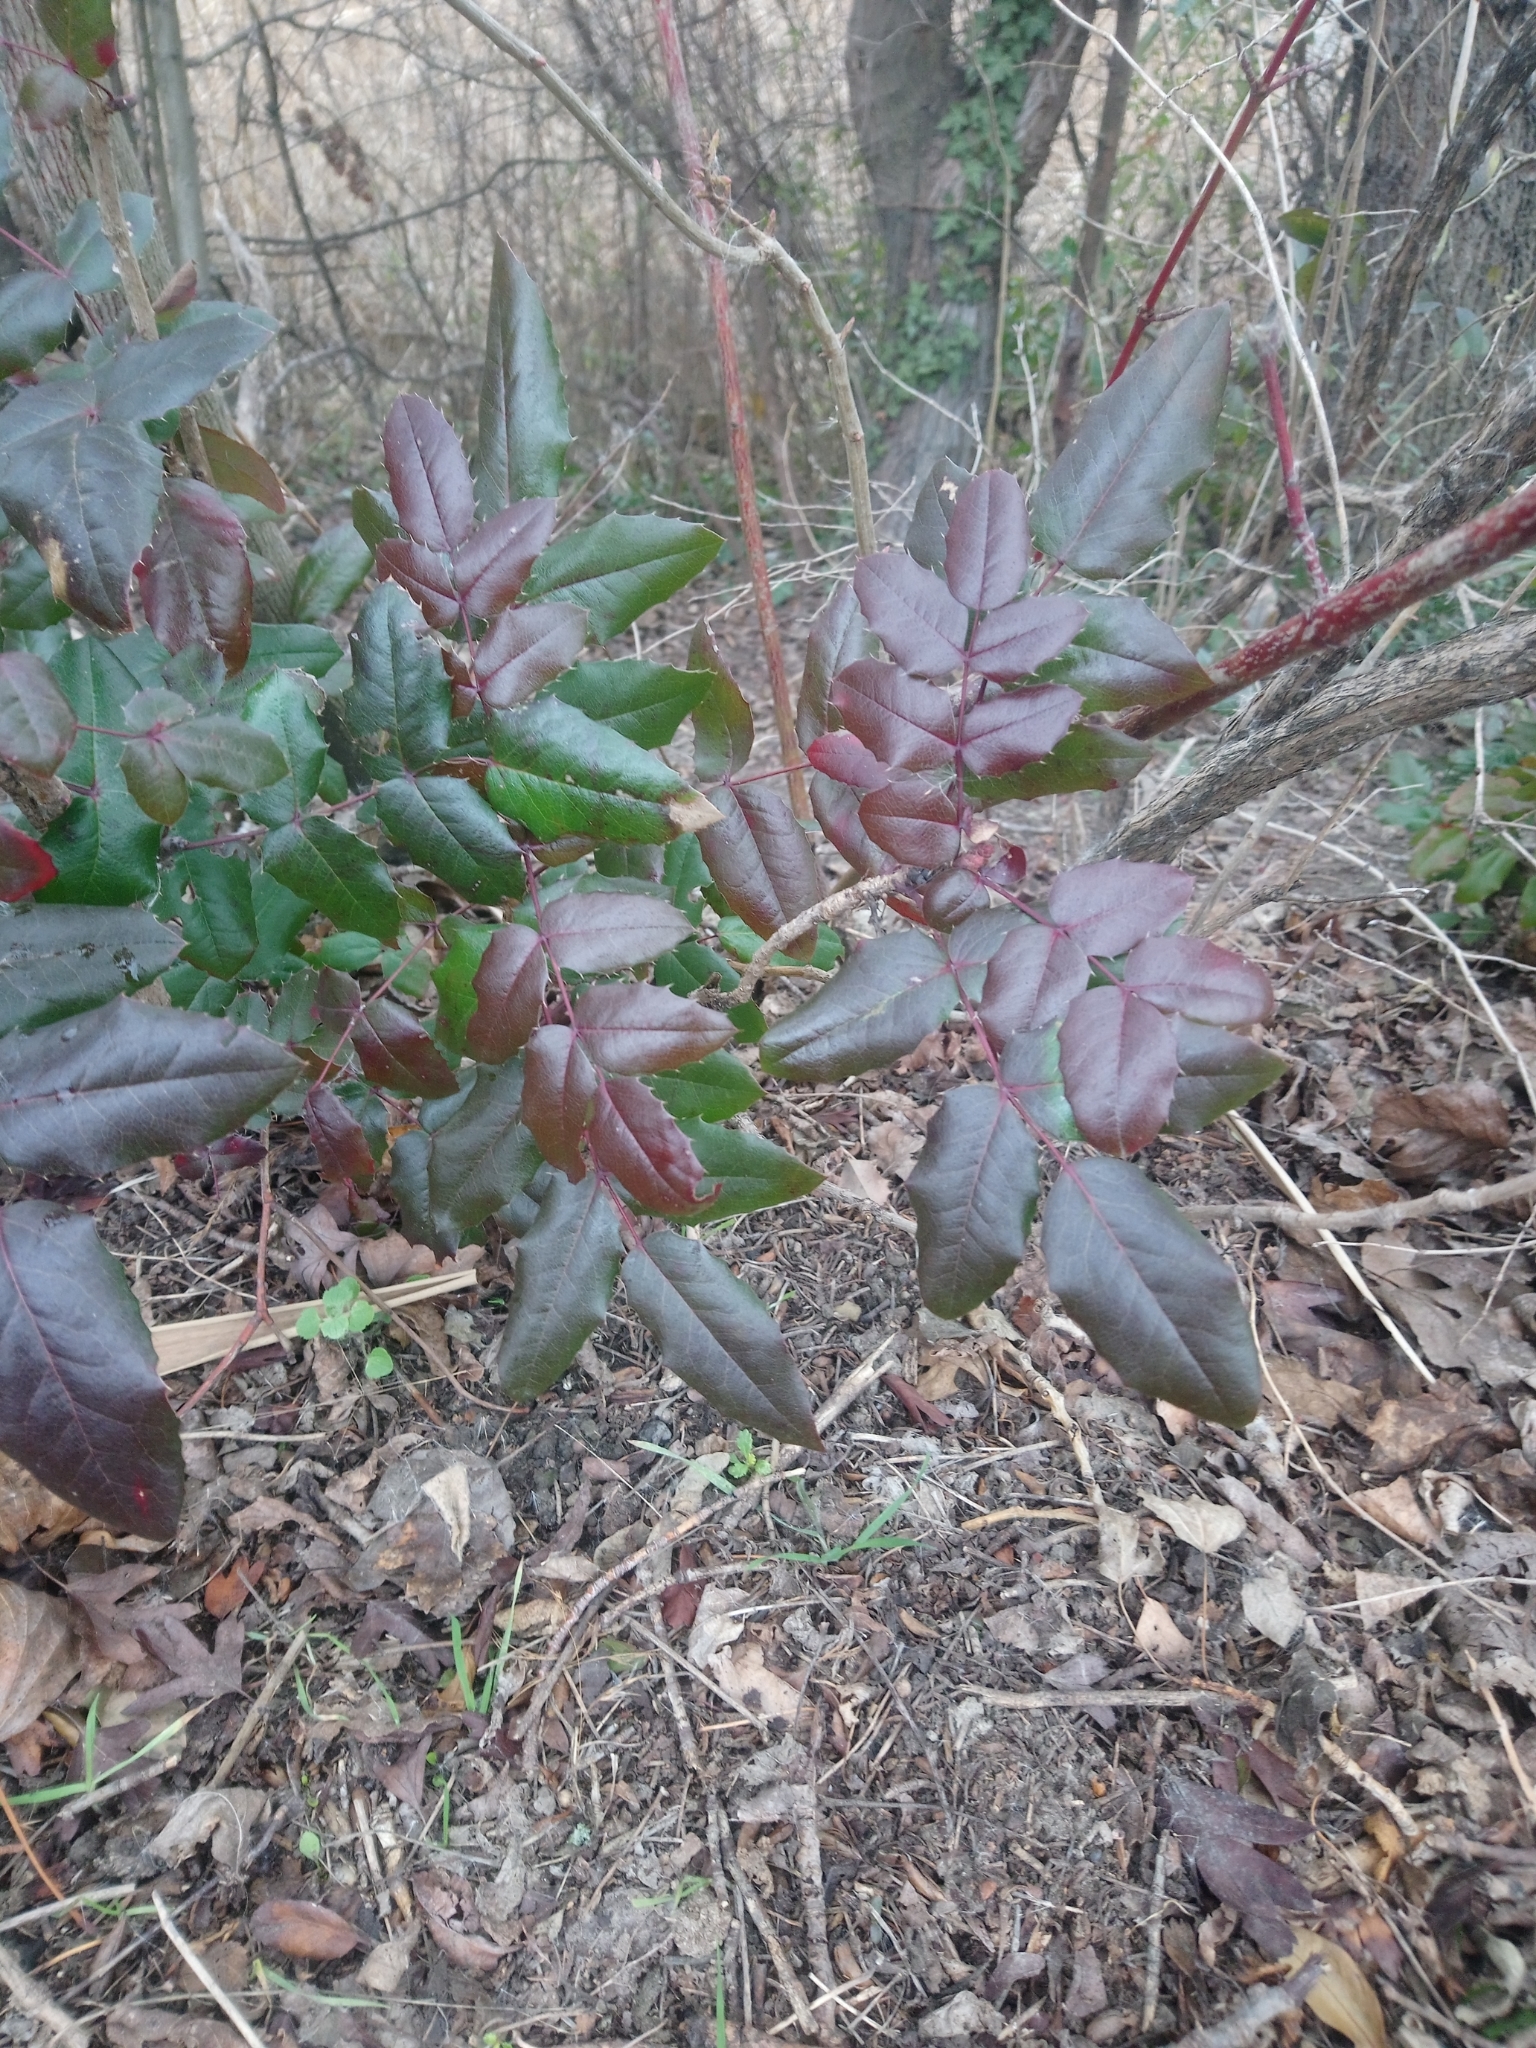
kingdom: Plantae
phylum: Tracheophyta
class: Magnoliopsida
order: Ranunculales
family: Berberidaceae
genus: Mahonia
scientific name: Mahonia aquifolium
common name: Oregon-grape
